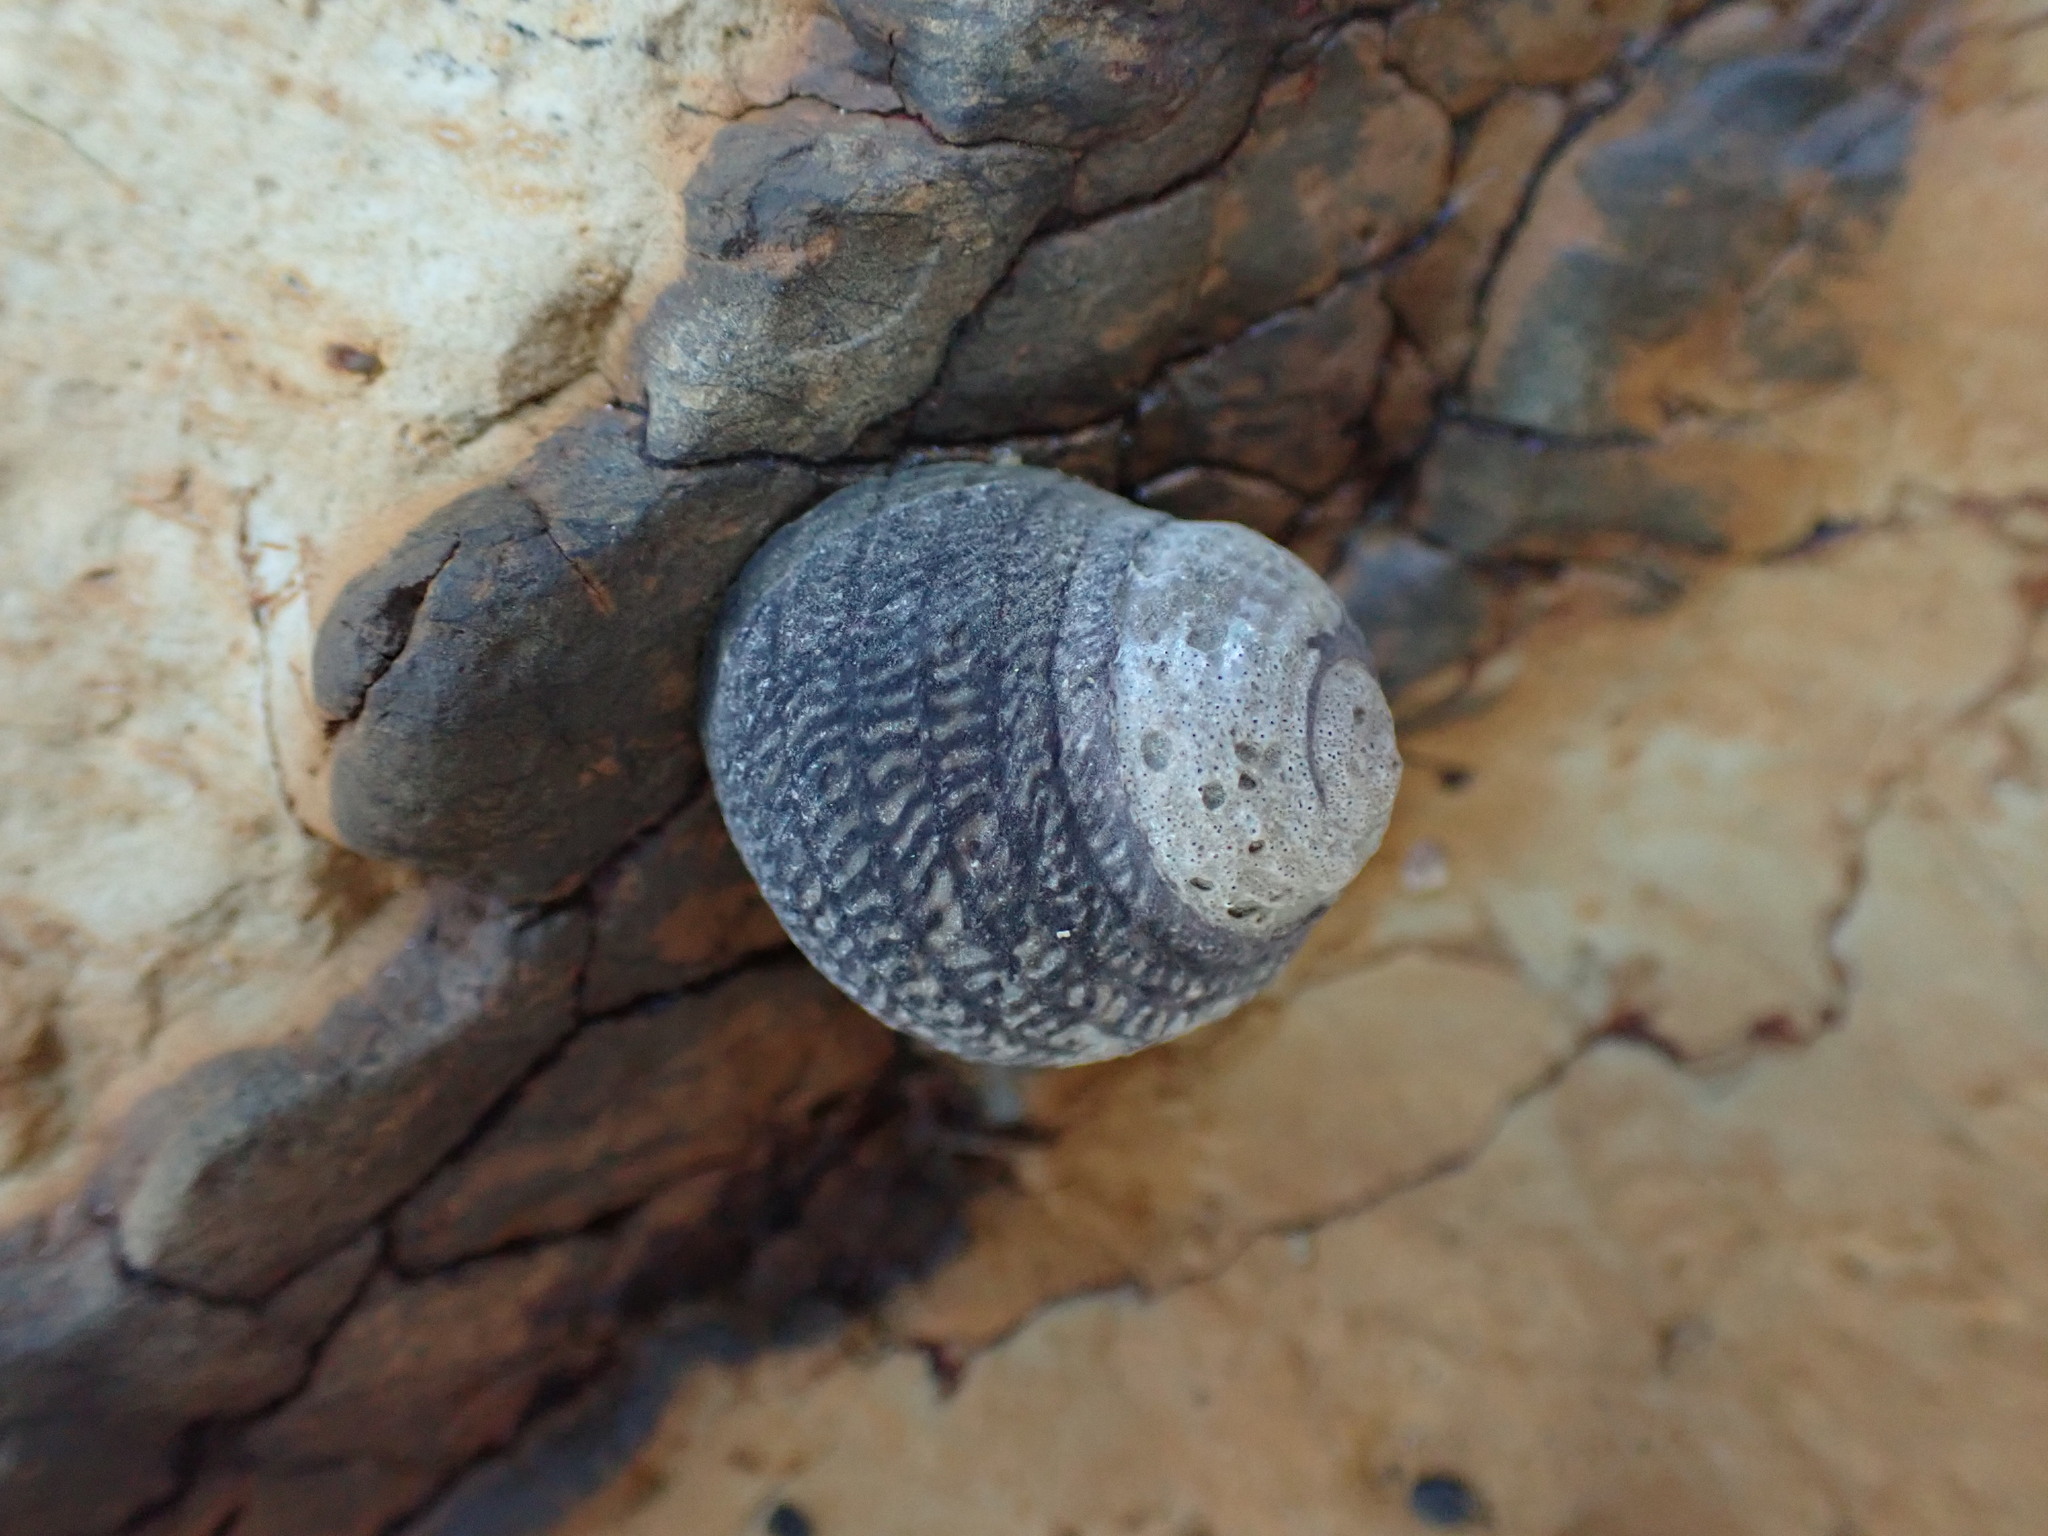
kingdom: Animalia
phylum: Mollusca
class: Gastropoda
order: Trochida
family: Trochidae
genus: Diloma
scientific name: Diloma aethiops
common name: Scorched monodont
